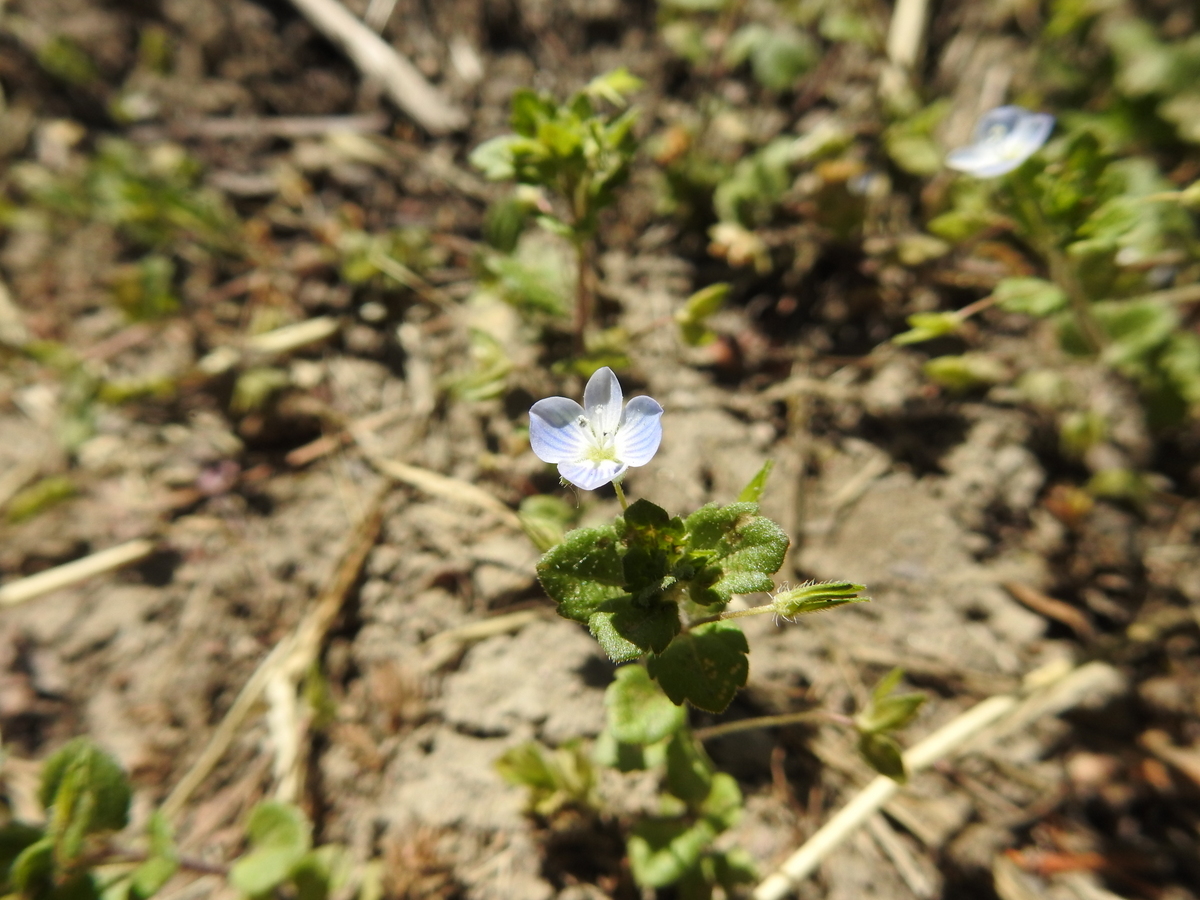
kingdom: Plantae
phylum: Tracheophyta
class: Magnoliopsida
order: Lamiales
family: Plantaginaceae
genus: Veronica
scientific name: Veronica persica
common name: Common field-speedwell
